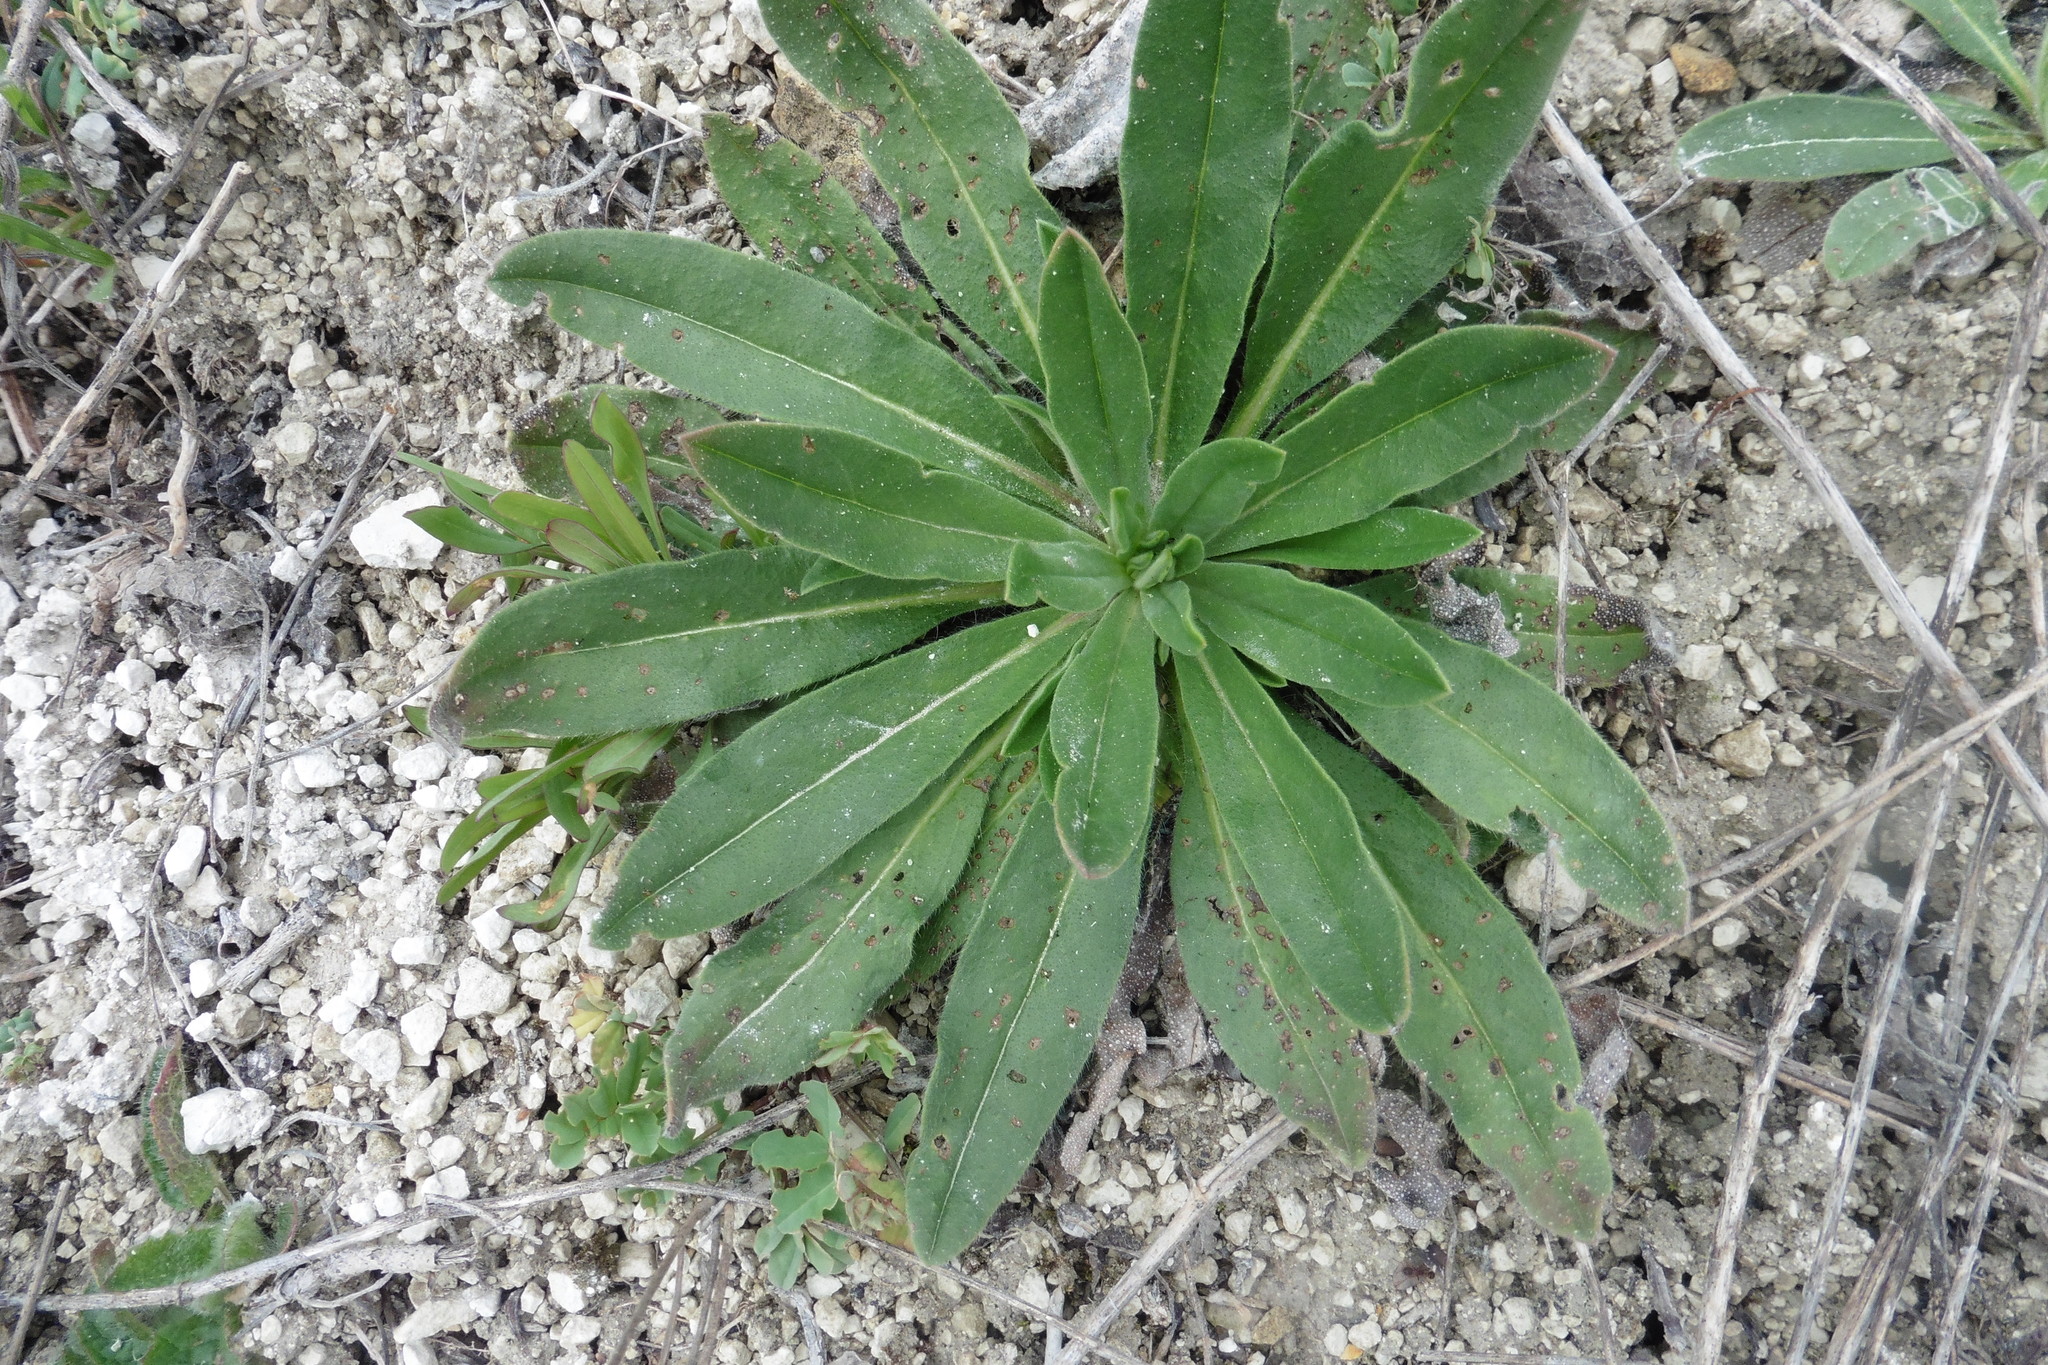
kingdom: Plantae
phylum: Tracheophyta
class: Magnoliopsida
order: Boraginales
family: Boraginaceae
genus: Echium
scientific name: Echium vulgare
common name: Common viper's bugloss
